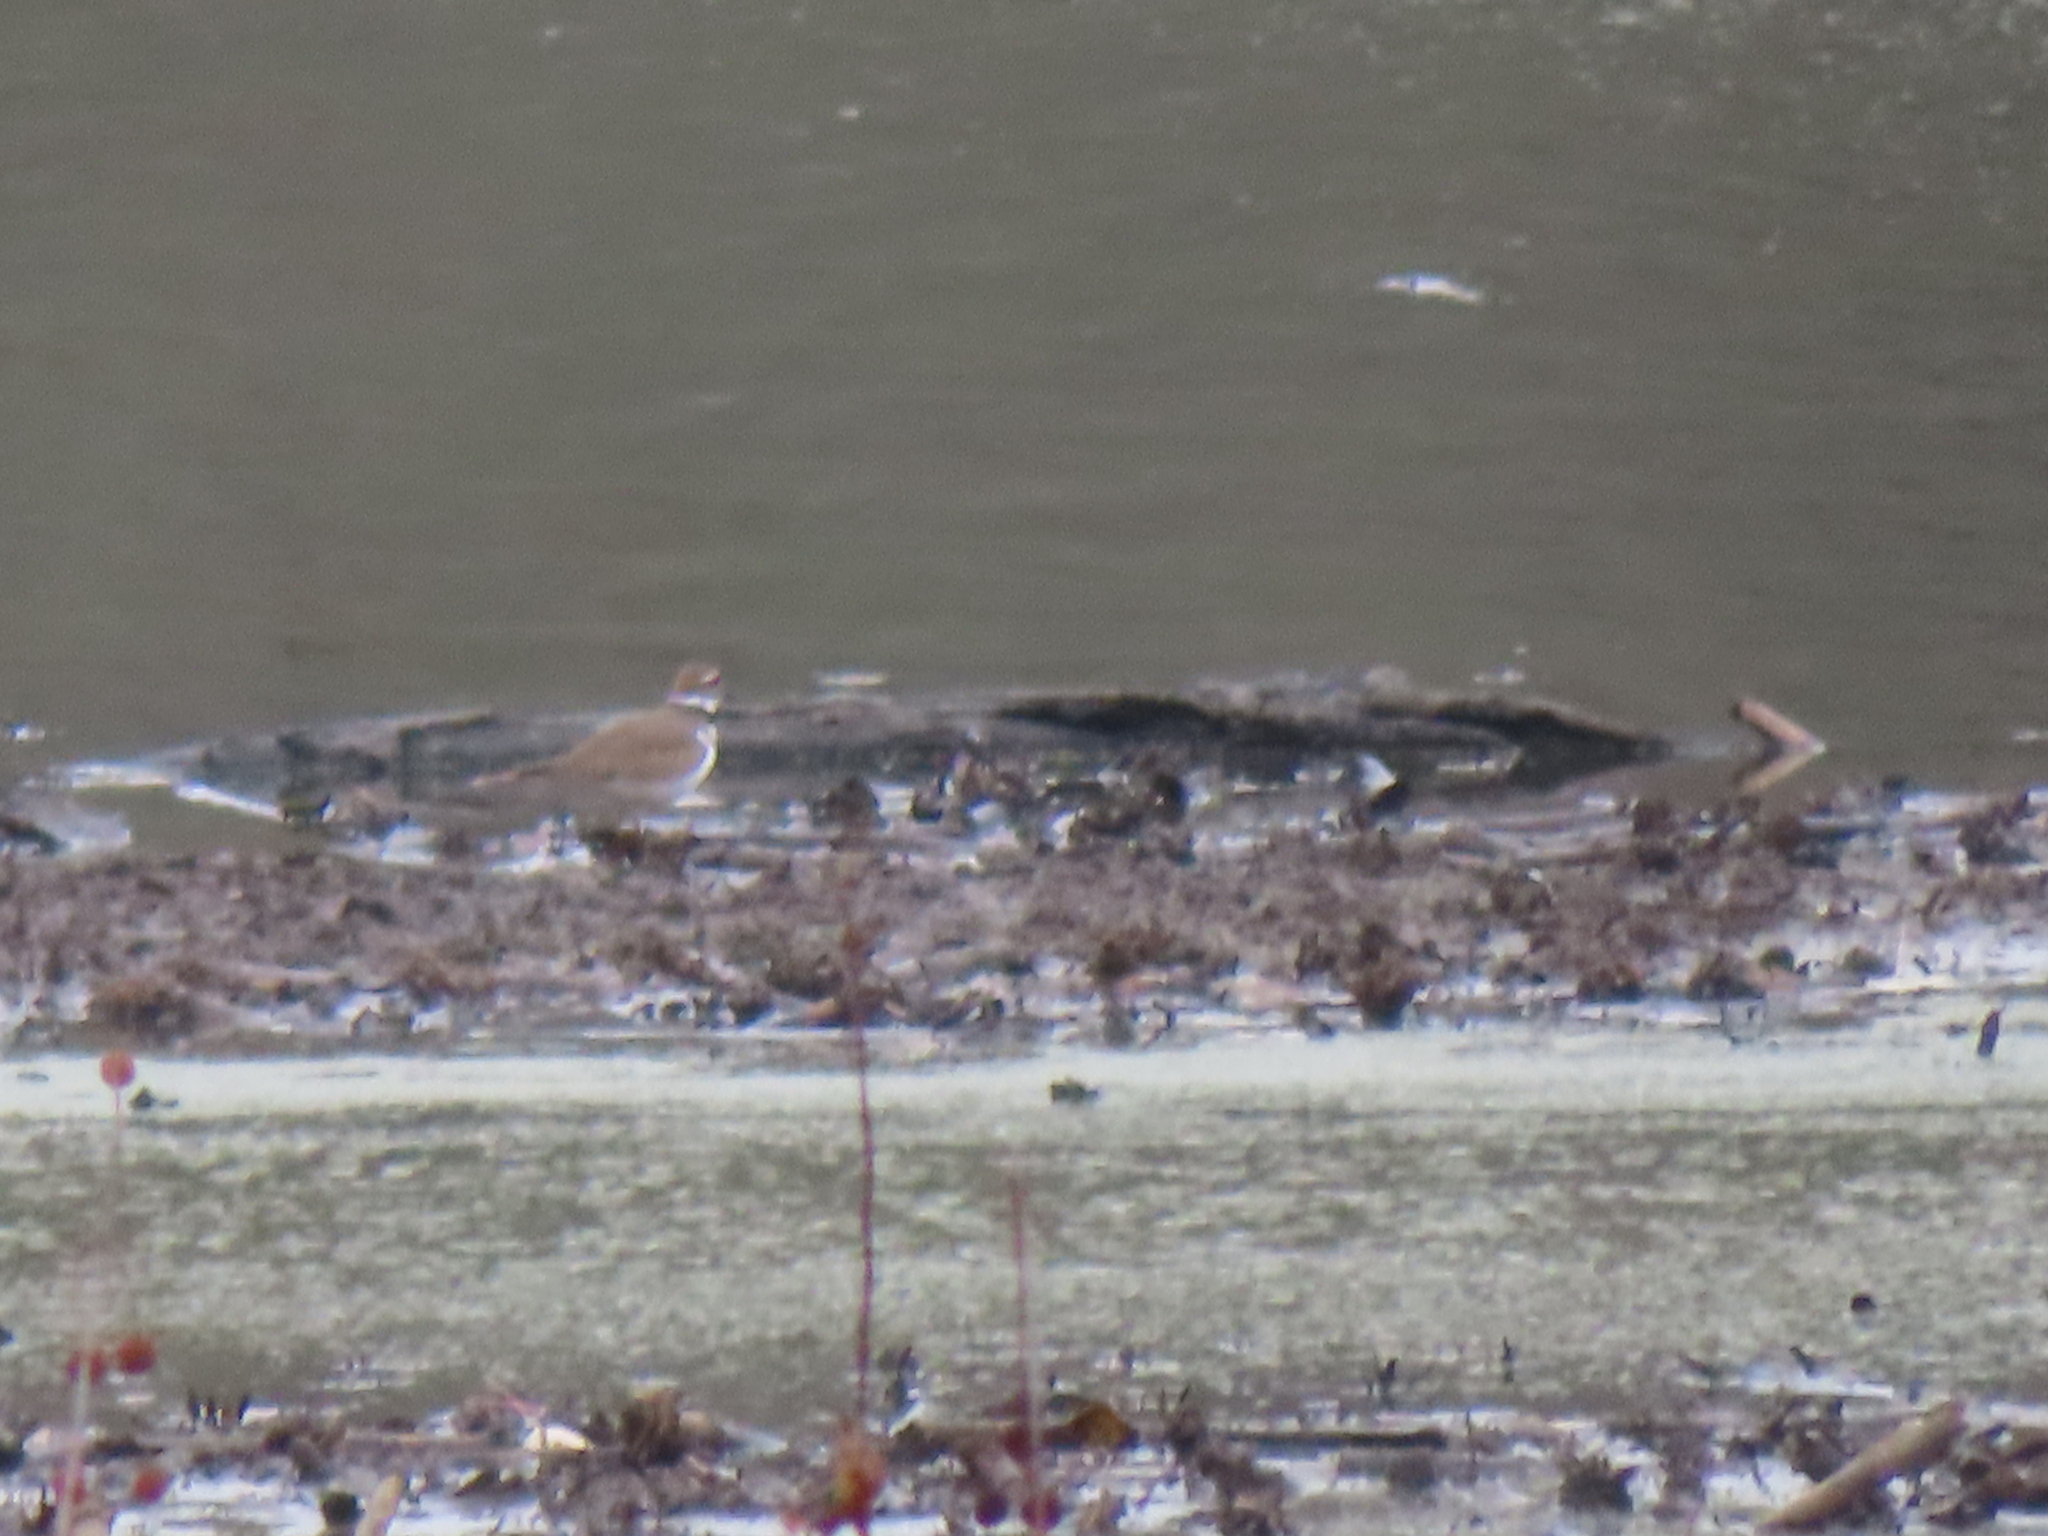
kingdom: Animalia
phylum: Chordata
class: Aves
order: Charadriiformes
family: Charadriidae
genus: Charadrius
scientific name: Charadrius vociferus
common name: Killdeer
